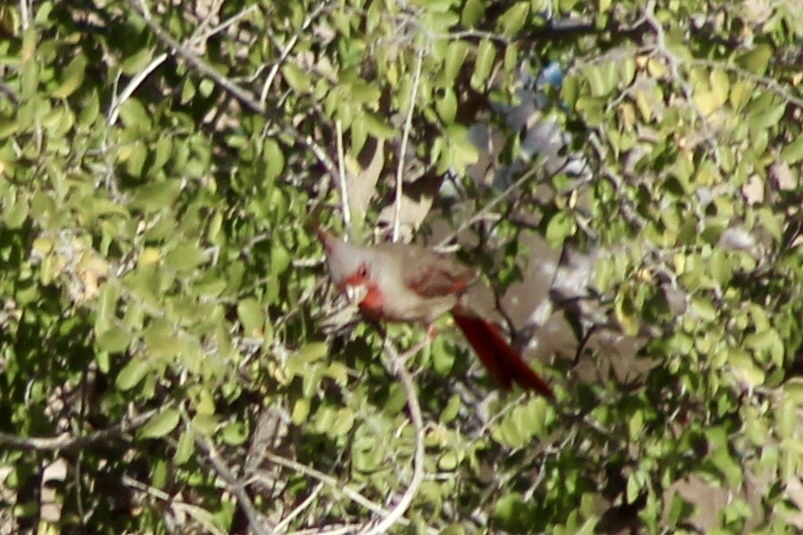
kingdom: Animalia
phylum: Chordata
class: Aves
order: Passeriformes
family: Cardinalidae
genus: Cardinalis
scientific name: Cardinalis sinuatus
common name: Pyrrhuloxia
